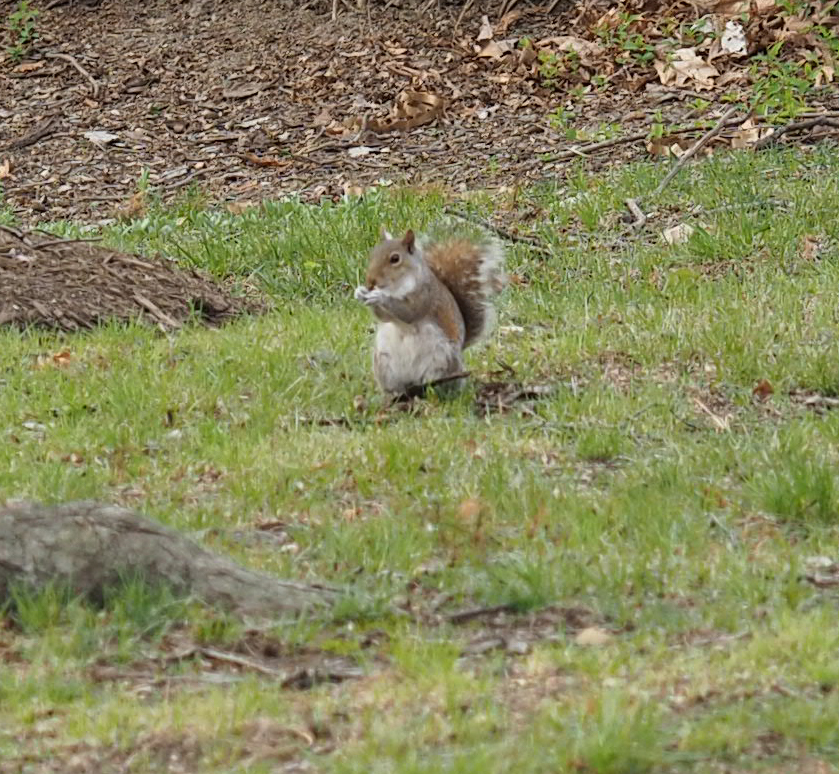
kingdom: Animalia
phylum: Chordata
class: Mammalia
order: Rodentia
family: Sciuridae
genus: Sciurus
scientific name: Sciurus carolinensis
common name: Eastern gray squirrel
